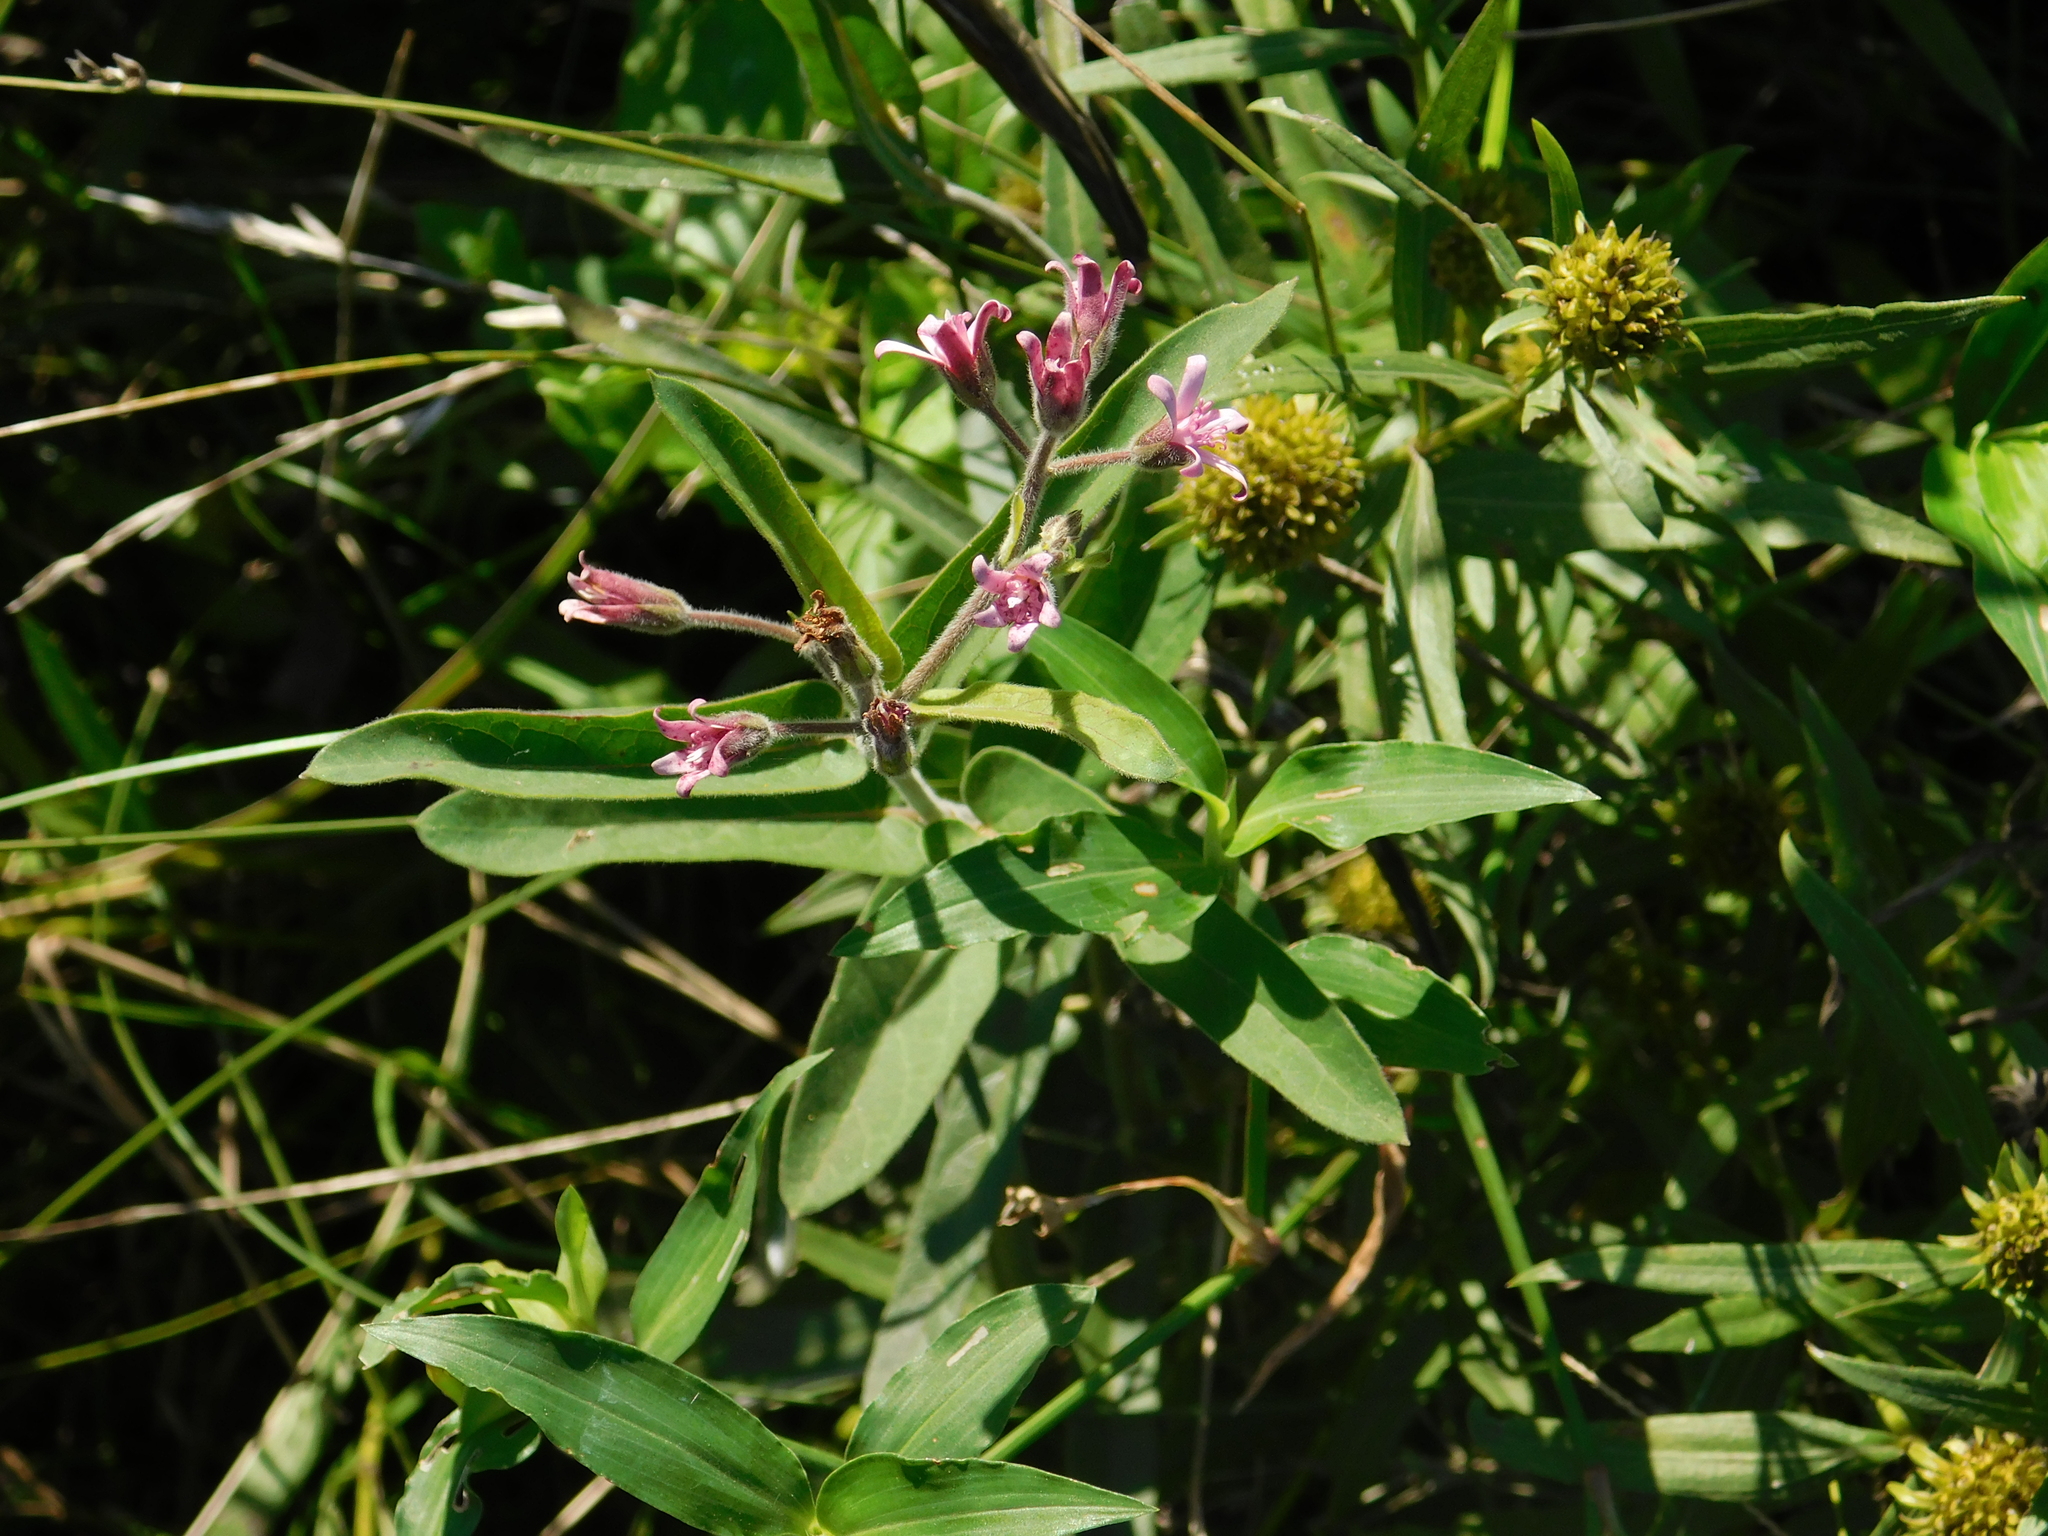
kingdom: Plantae
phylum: Tracheophyta
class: Magnoliopsida
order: Gentianales
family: Apocynaceae
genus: Oxypetalum
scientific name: Oxypetalum solanoides
